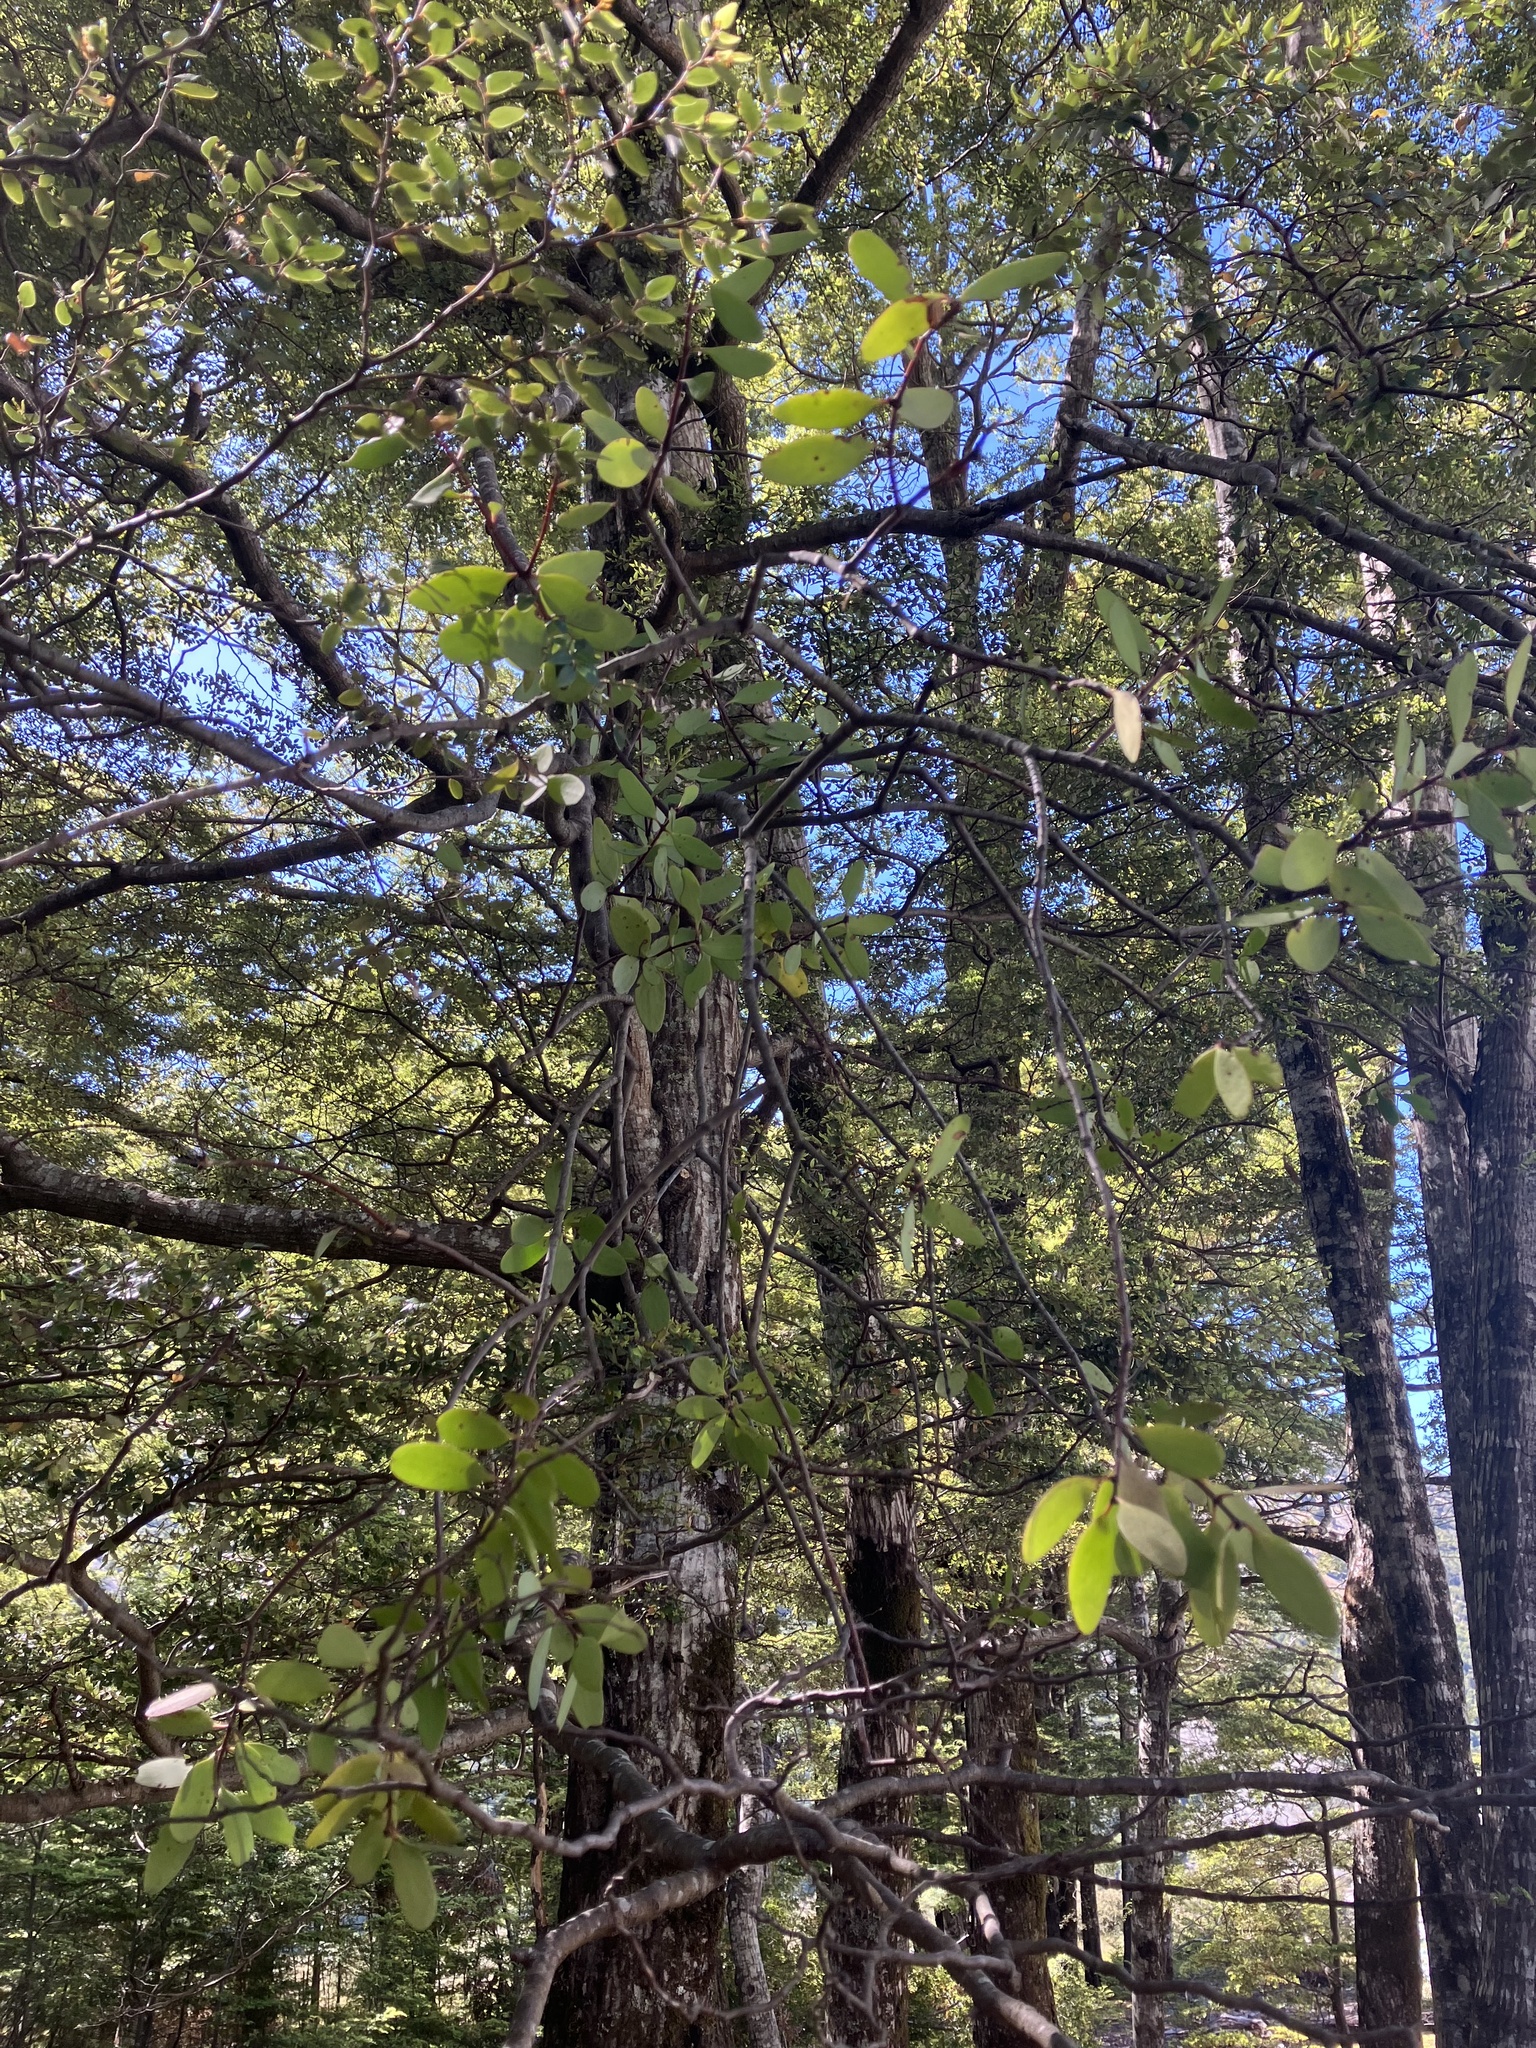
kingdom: Plantae
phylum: Tracheophyta
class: Magnoliopsida
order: Santalales
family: Loranthaceae
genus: Alepis
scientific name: Alepis flavida
